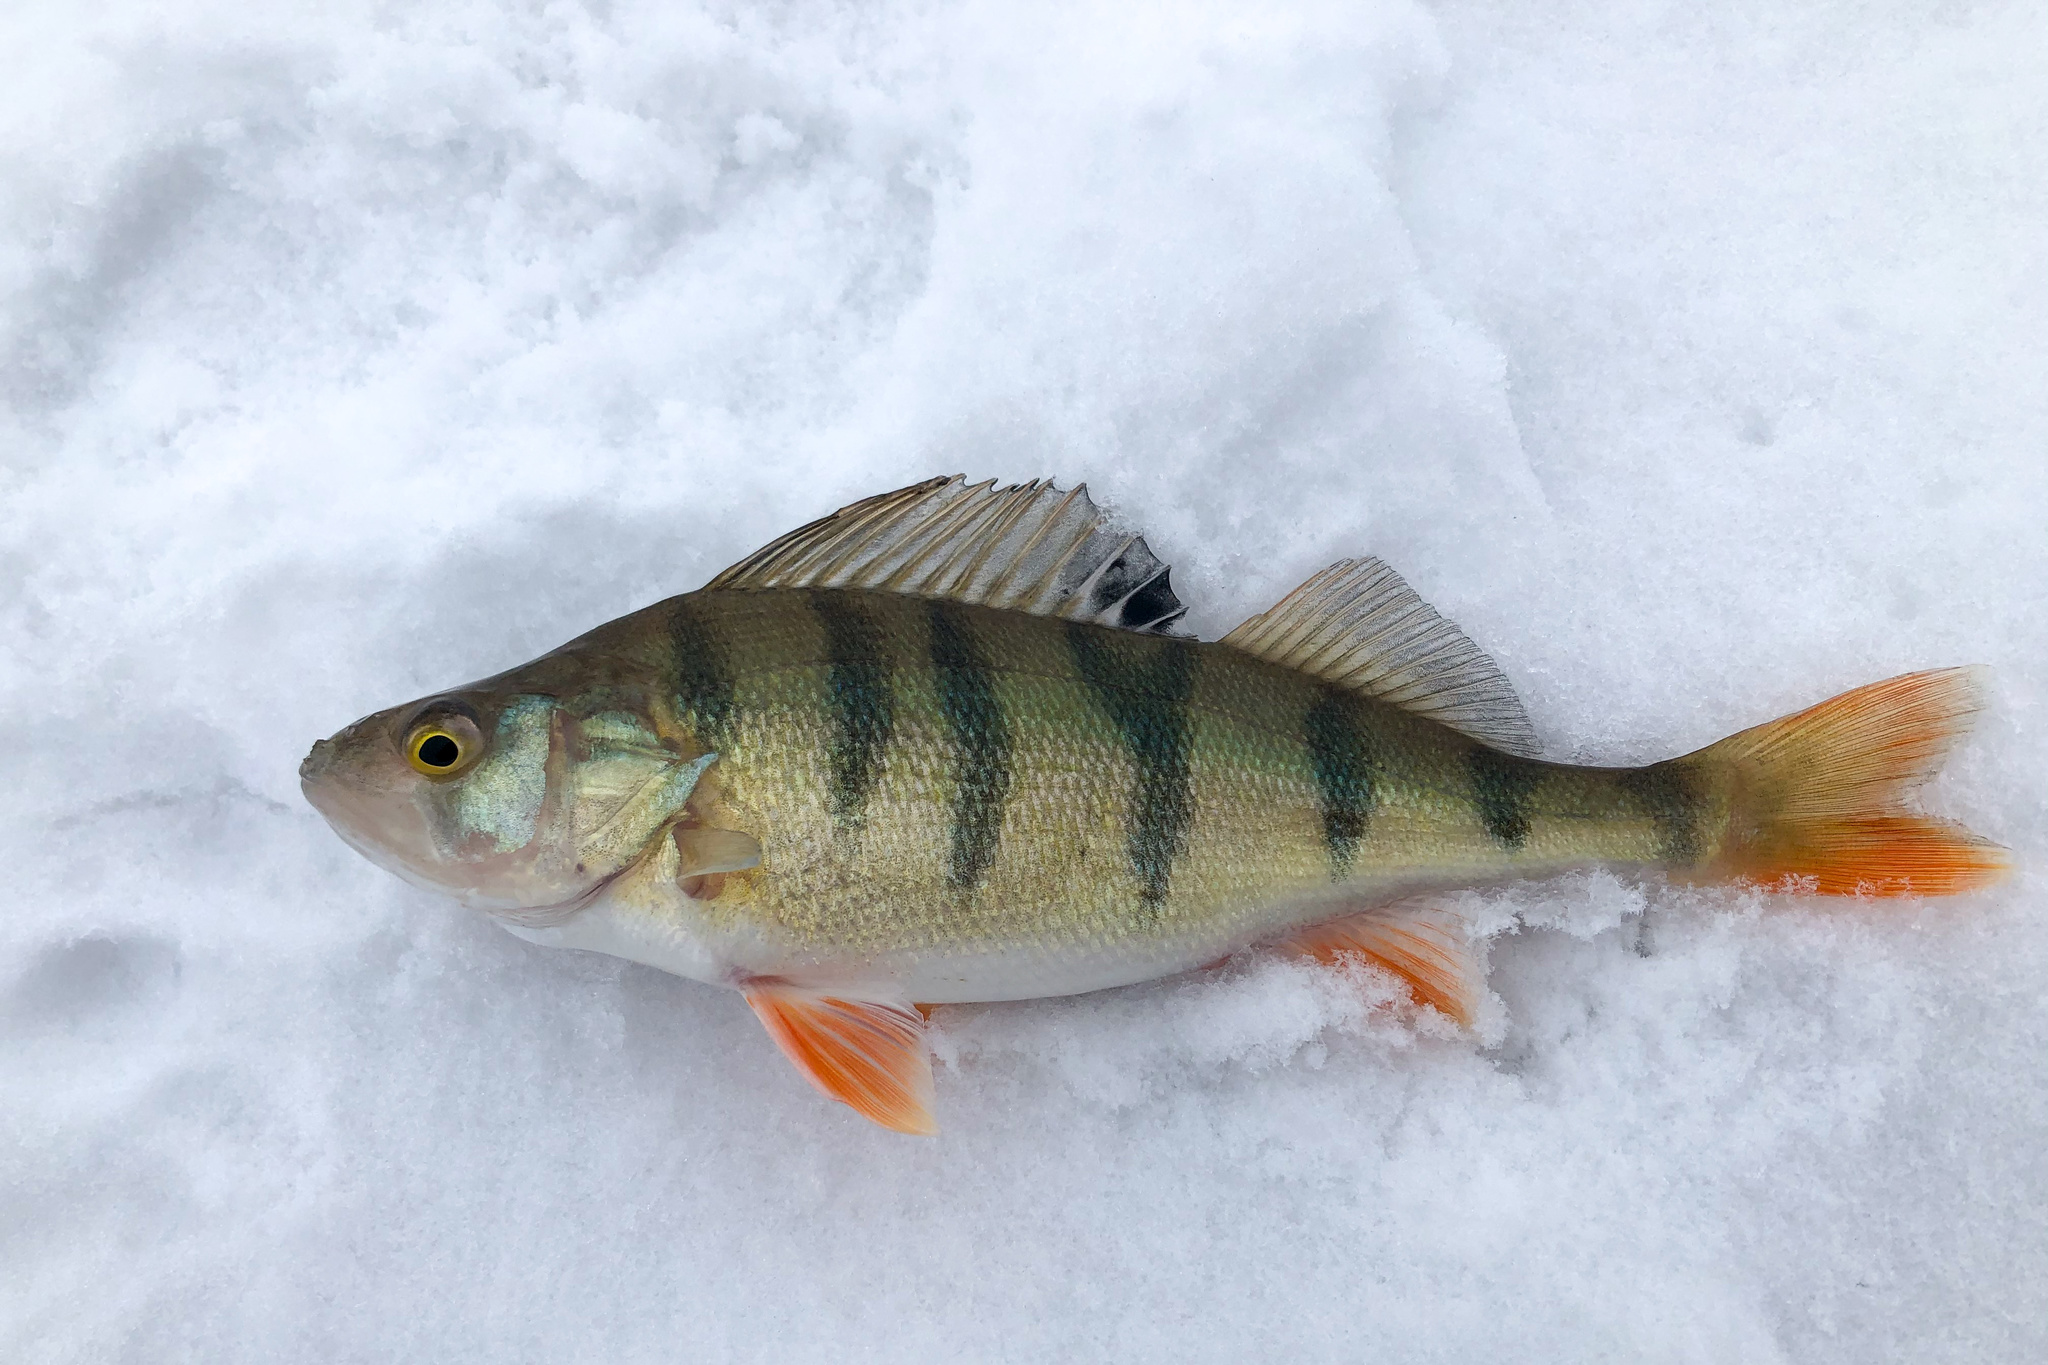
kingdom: Animalia
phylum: Chordata
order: Perciformes
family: Percidae
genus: Perca
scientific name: Perca fluviatilis
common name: Perch
